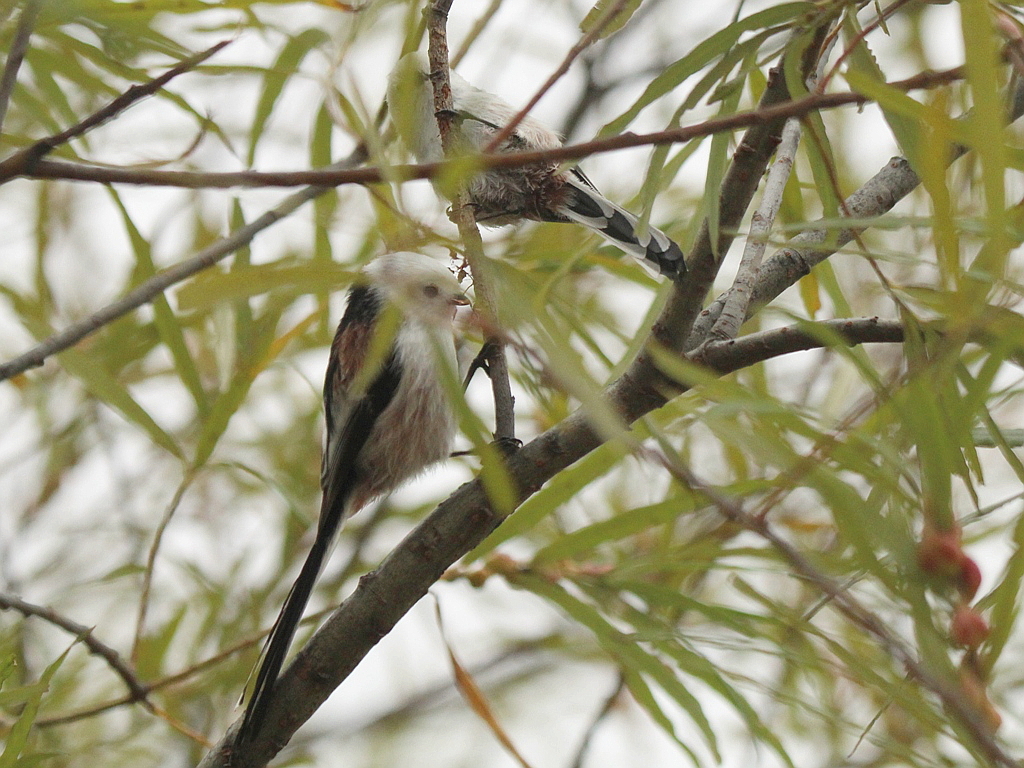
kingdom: Animalia
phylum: Chordata
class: Aves
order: Passeriformes
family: Aegithalidae
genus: Aegithalos
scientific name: Aegithalos caudatus
